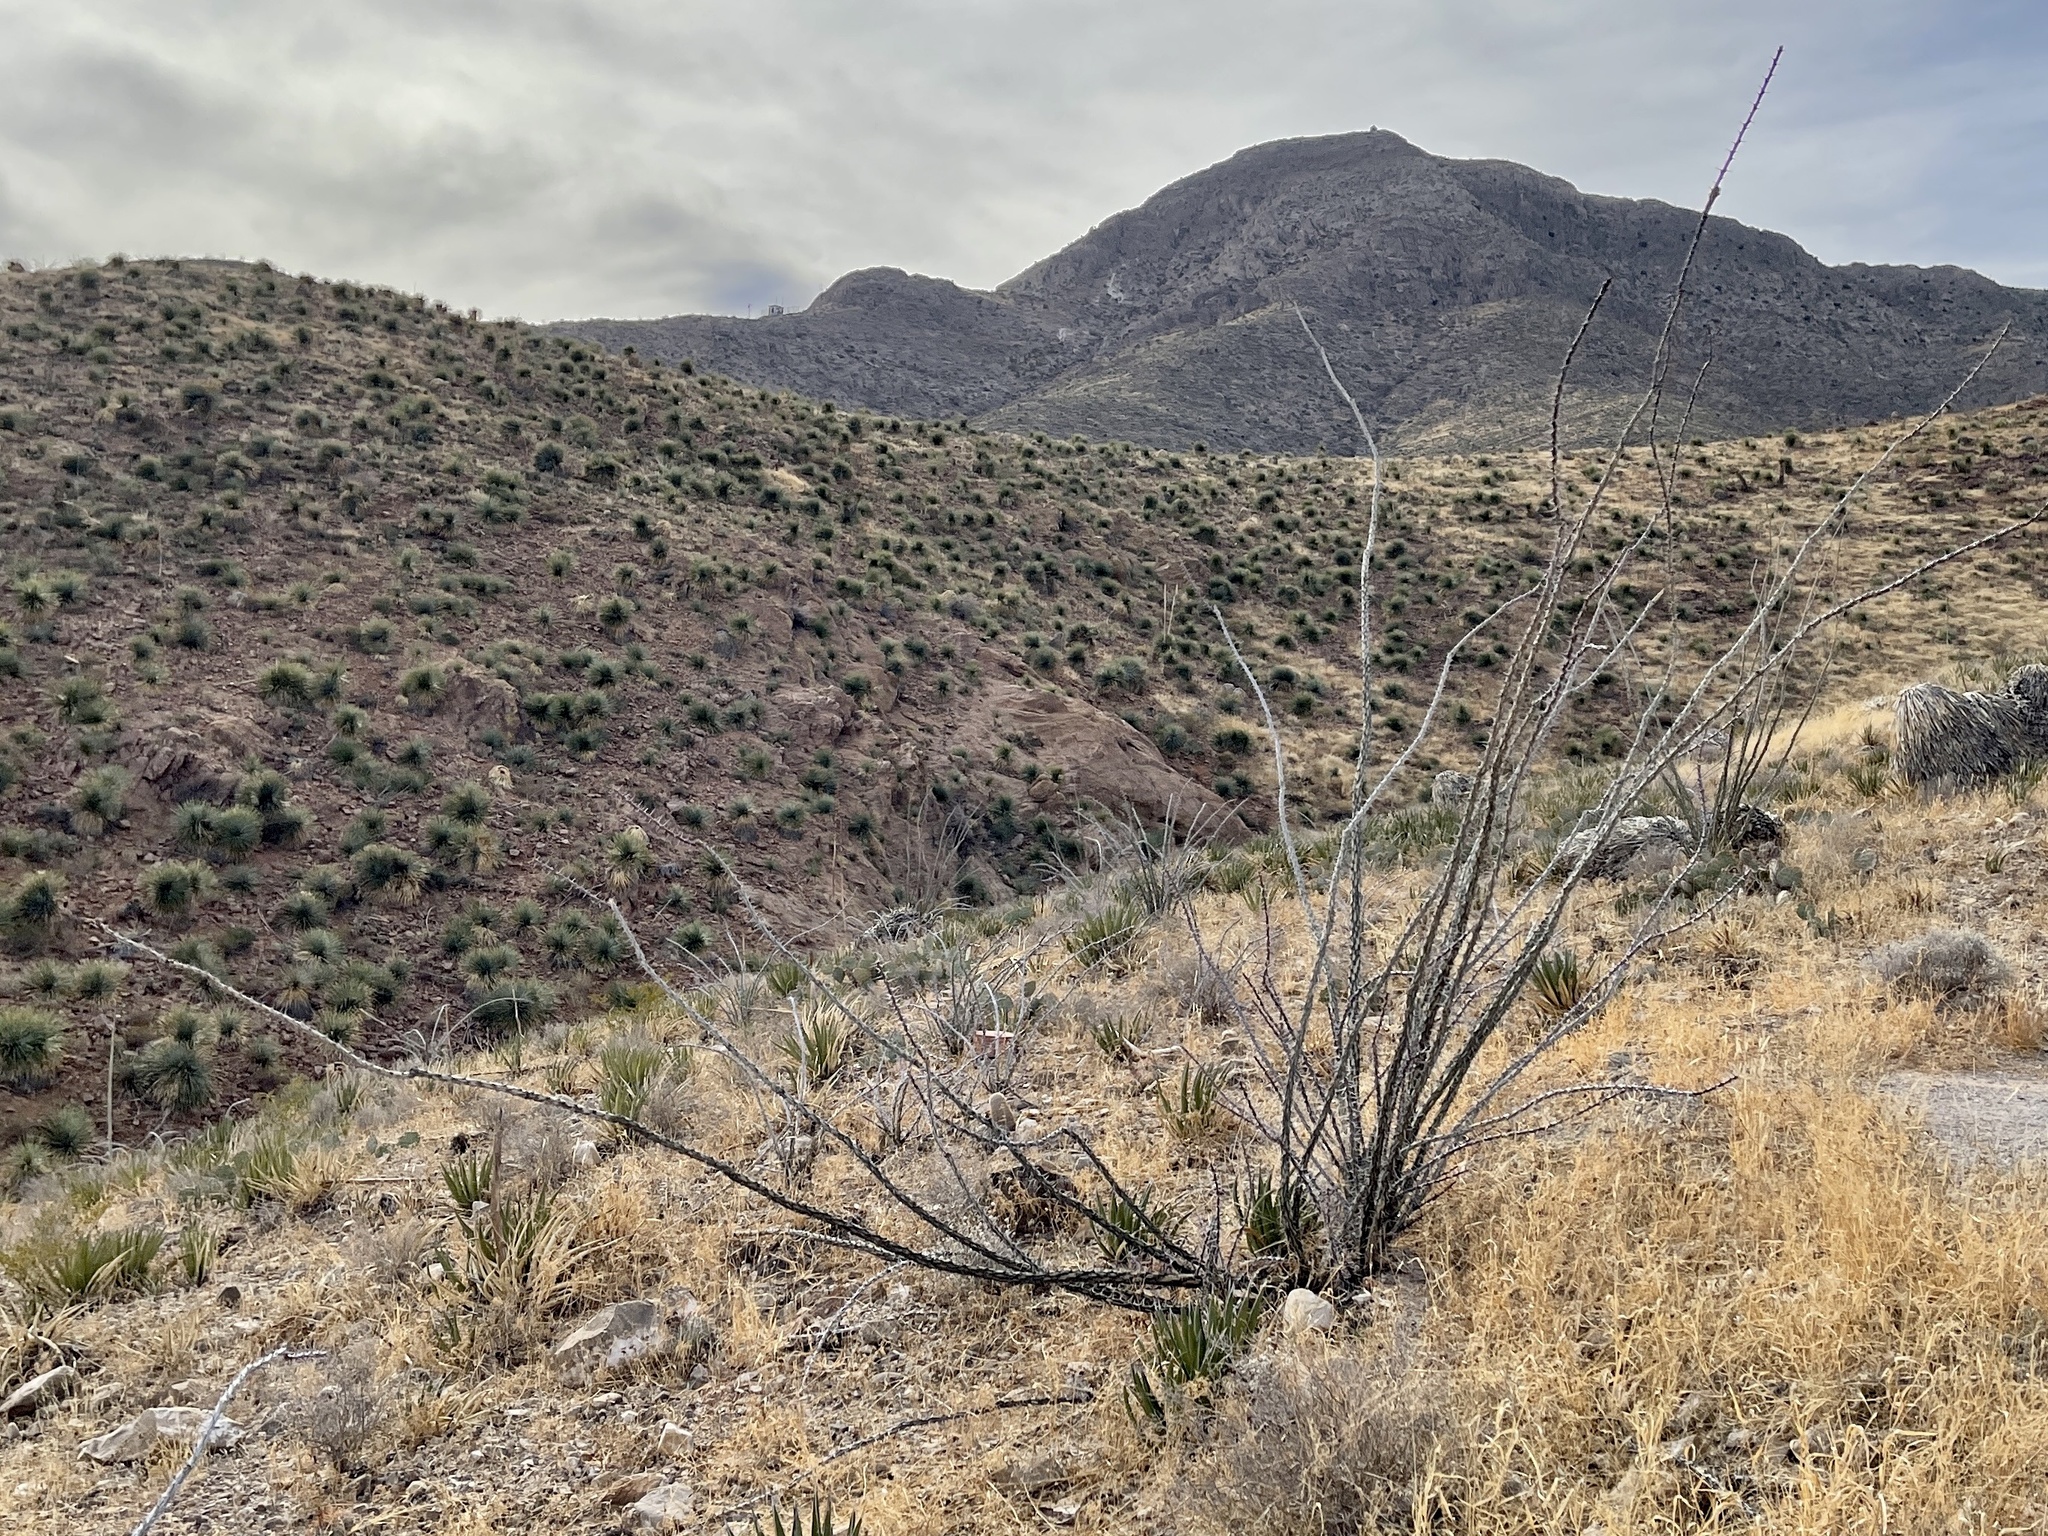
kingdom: Plantae
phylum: Tracheophyta
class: Magnoliopsida
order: Ericales
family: Fouquieriaceae
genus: Fouquieria
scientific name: Fouquieria splendens
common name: Vine-cactus
